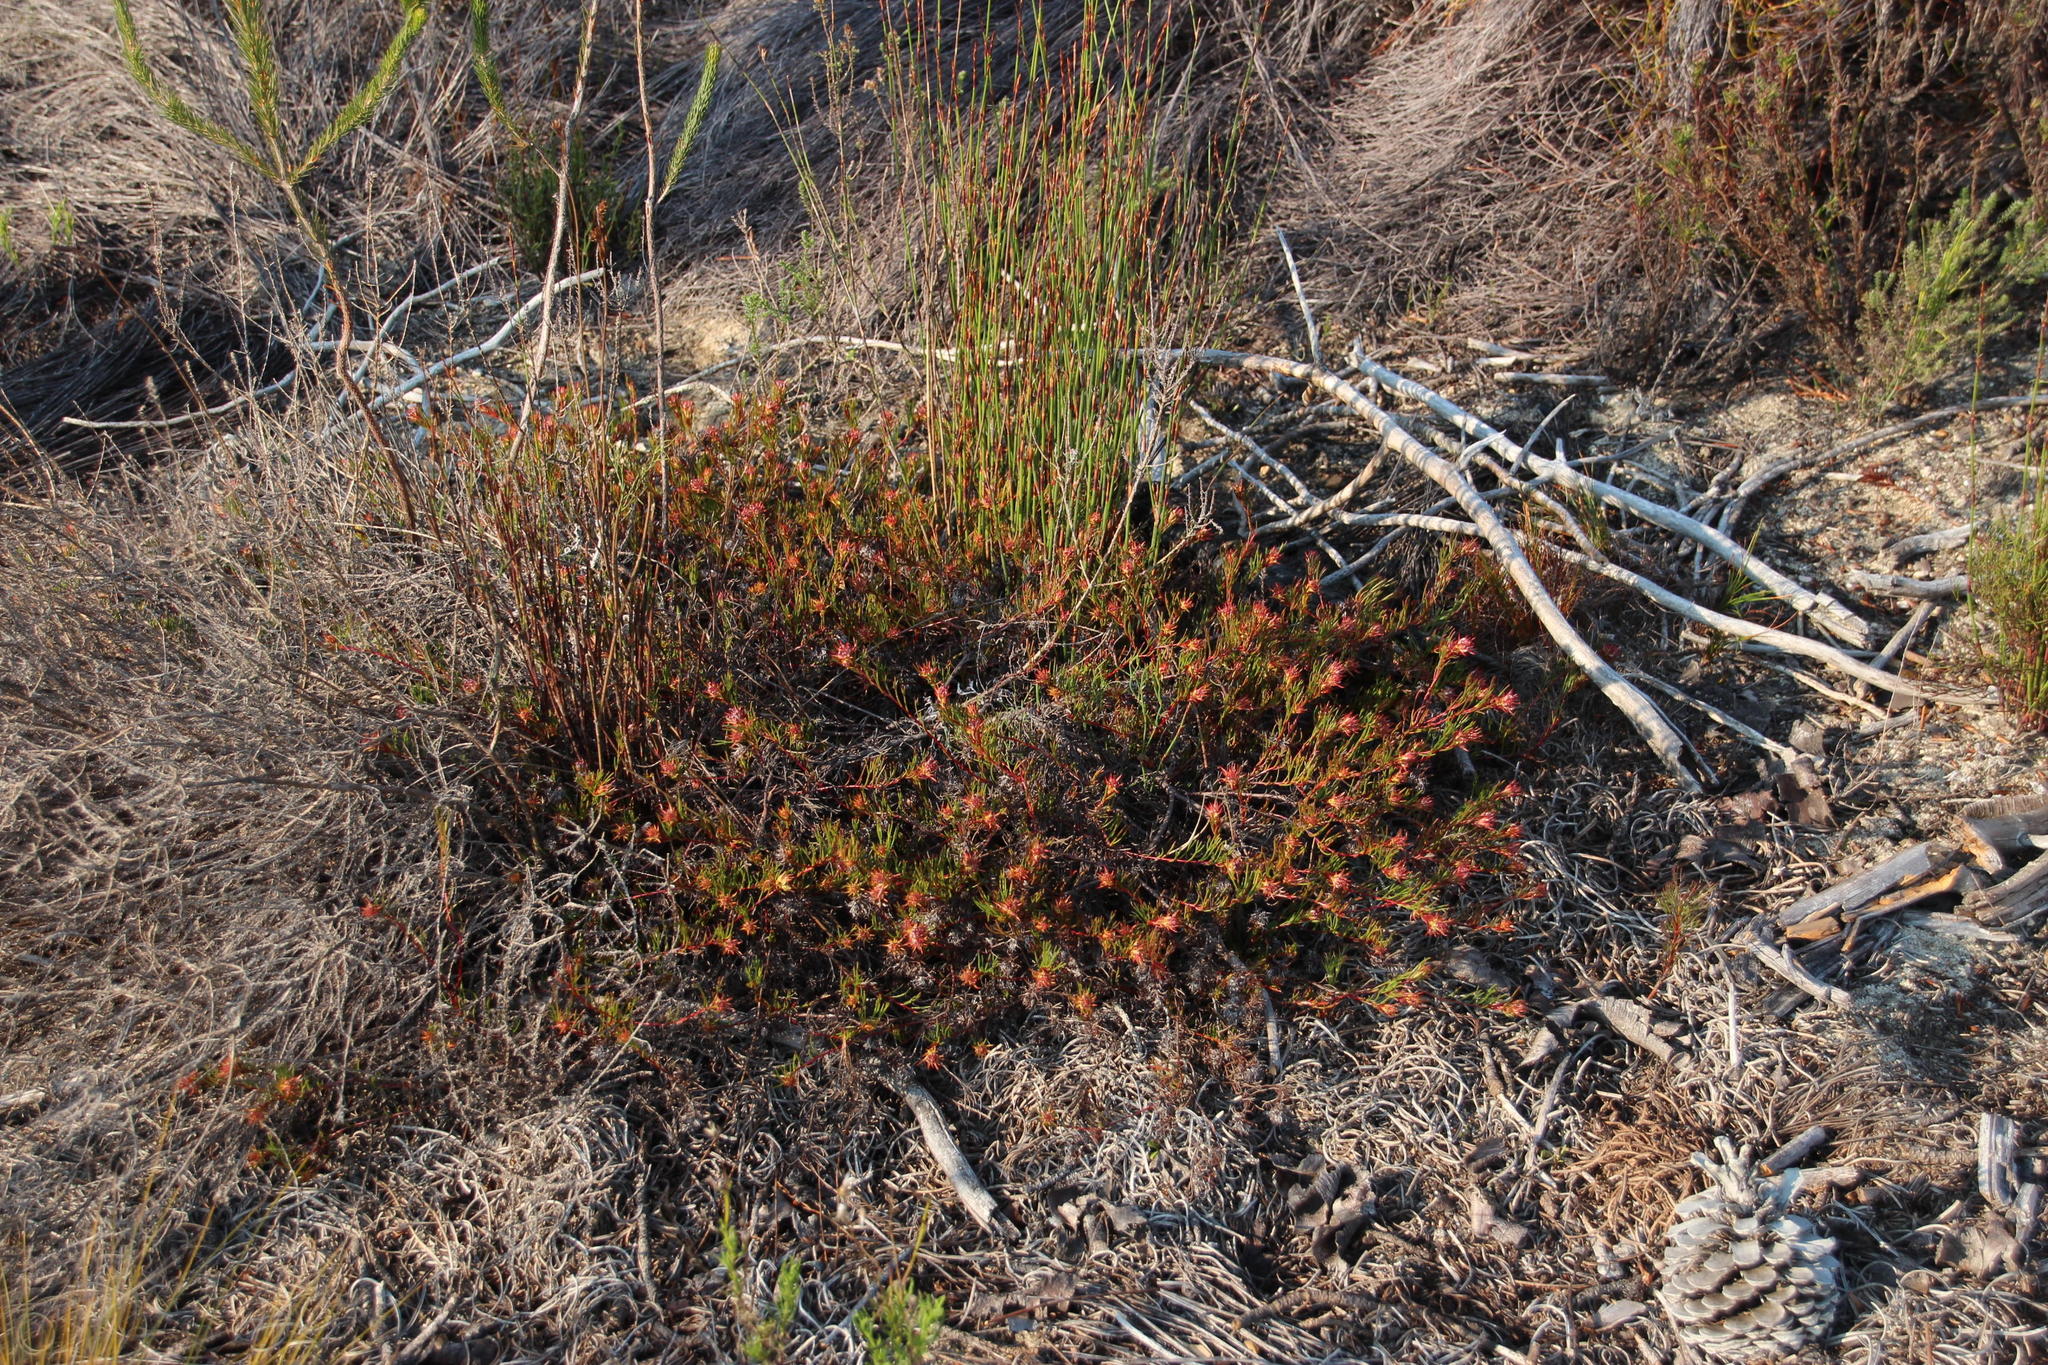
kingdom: Plantae
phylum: Tracheophyta
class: Magnoliopsida
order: Proteales
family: Proteaceae
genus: Serruria
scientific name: Serruria bolusii
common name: Agulhas spiderhead
